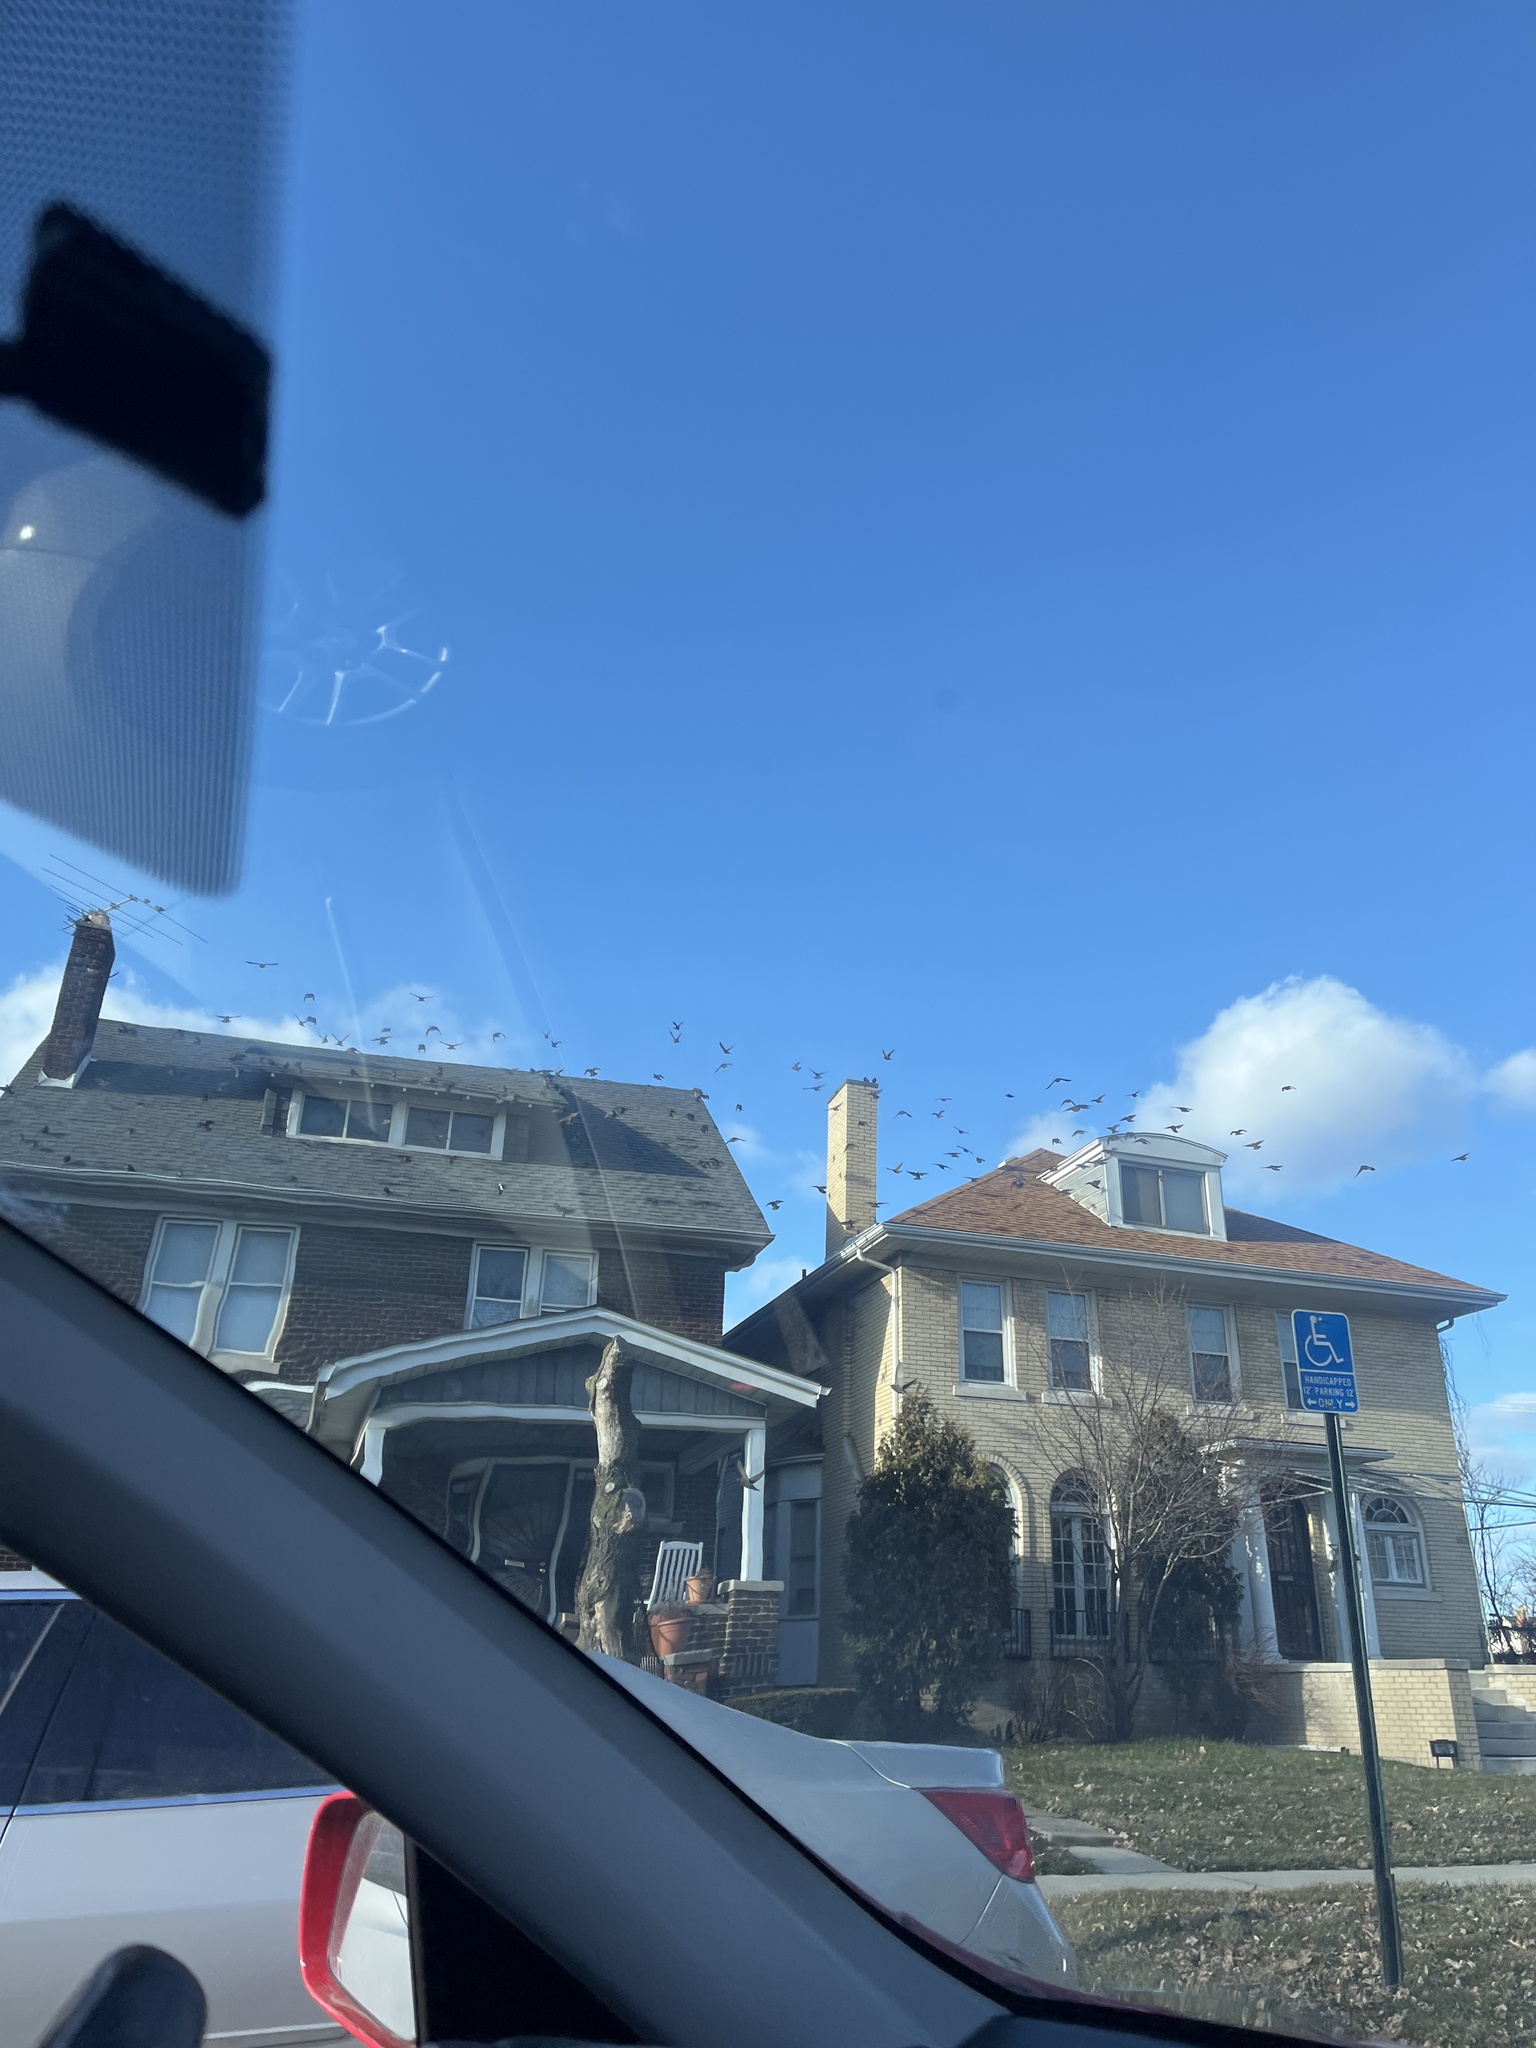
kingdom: Animalia
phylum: Chordata
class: Aves
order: Passeriformes
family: Sturnidae
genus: Sturnus
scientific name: Sturnus vulgaris
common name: Common starling
